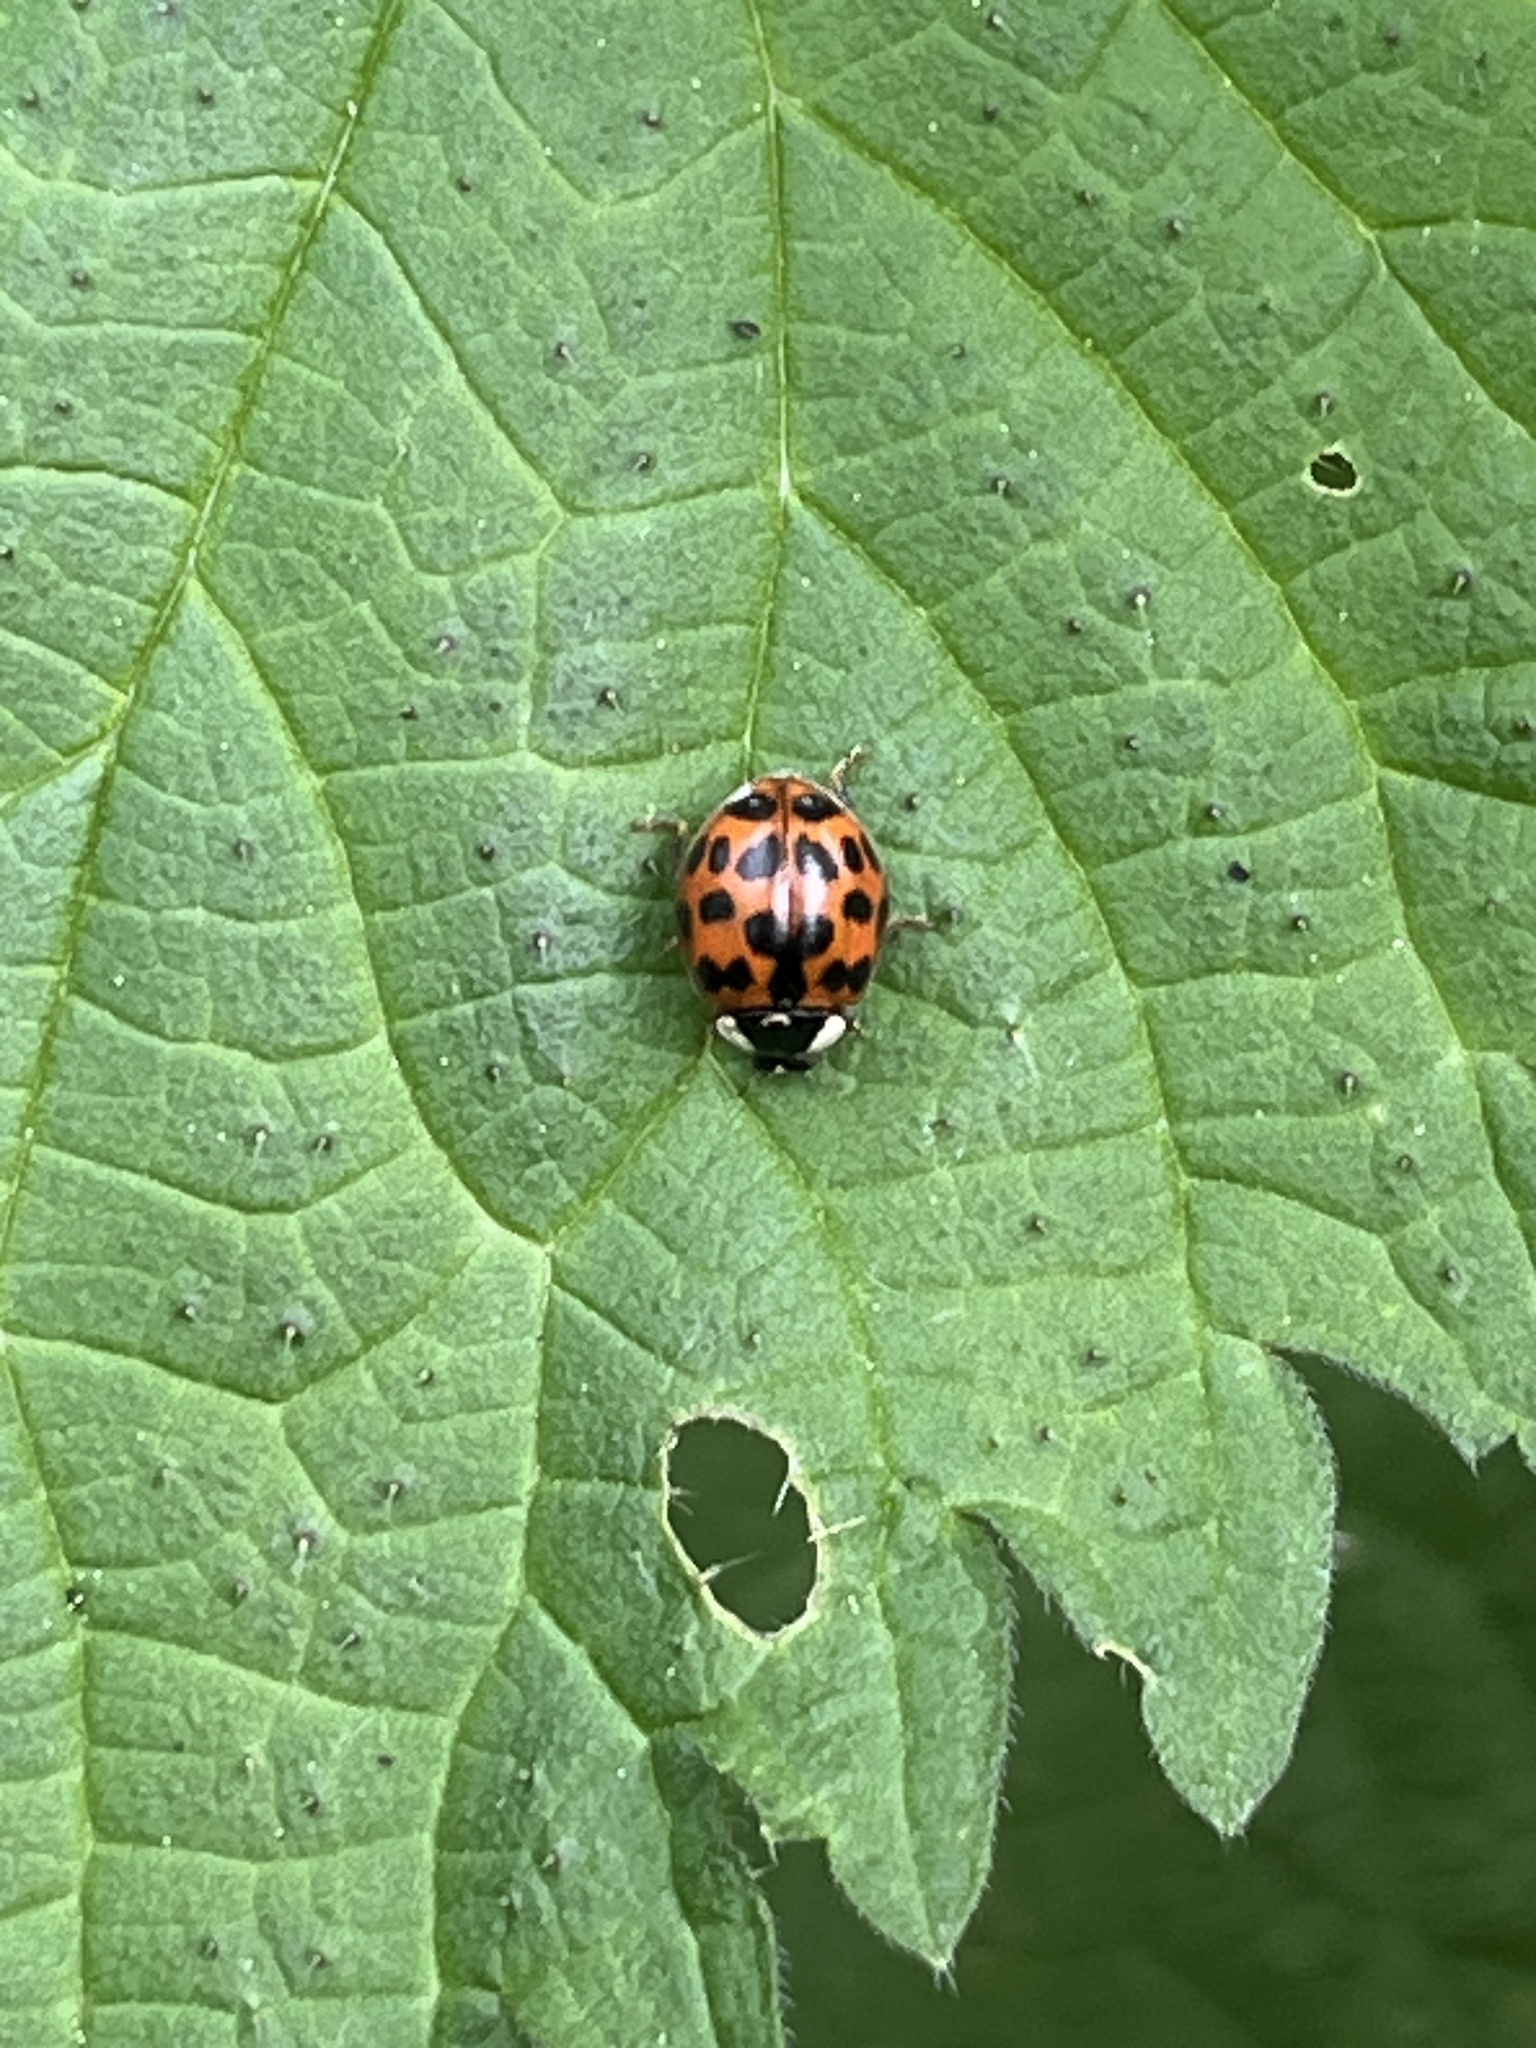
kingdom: Animalia
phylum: Arthropoda
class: Insecta
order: Coleoptera
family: Coccinellidae
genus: Harmonia
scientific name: Harmonia axyridis
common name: Harlequin ladybird
